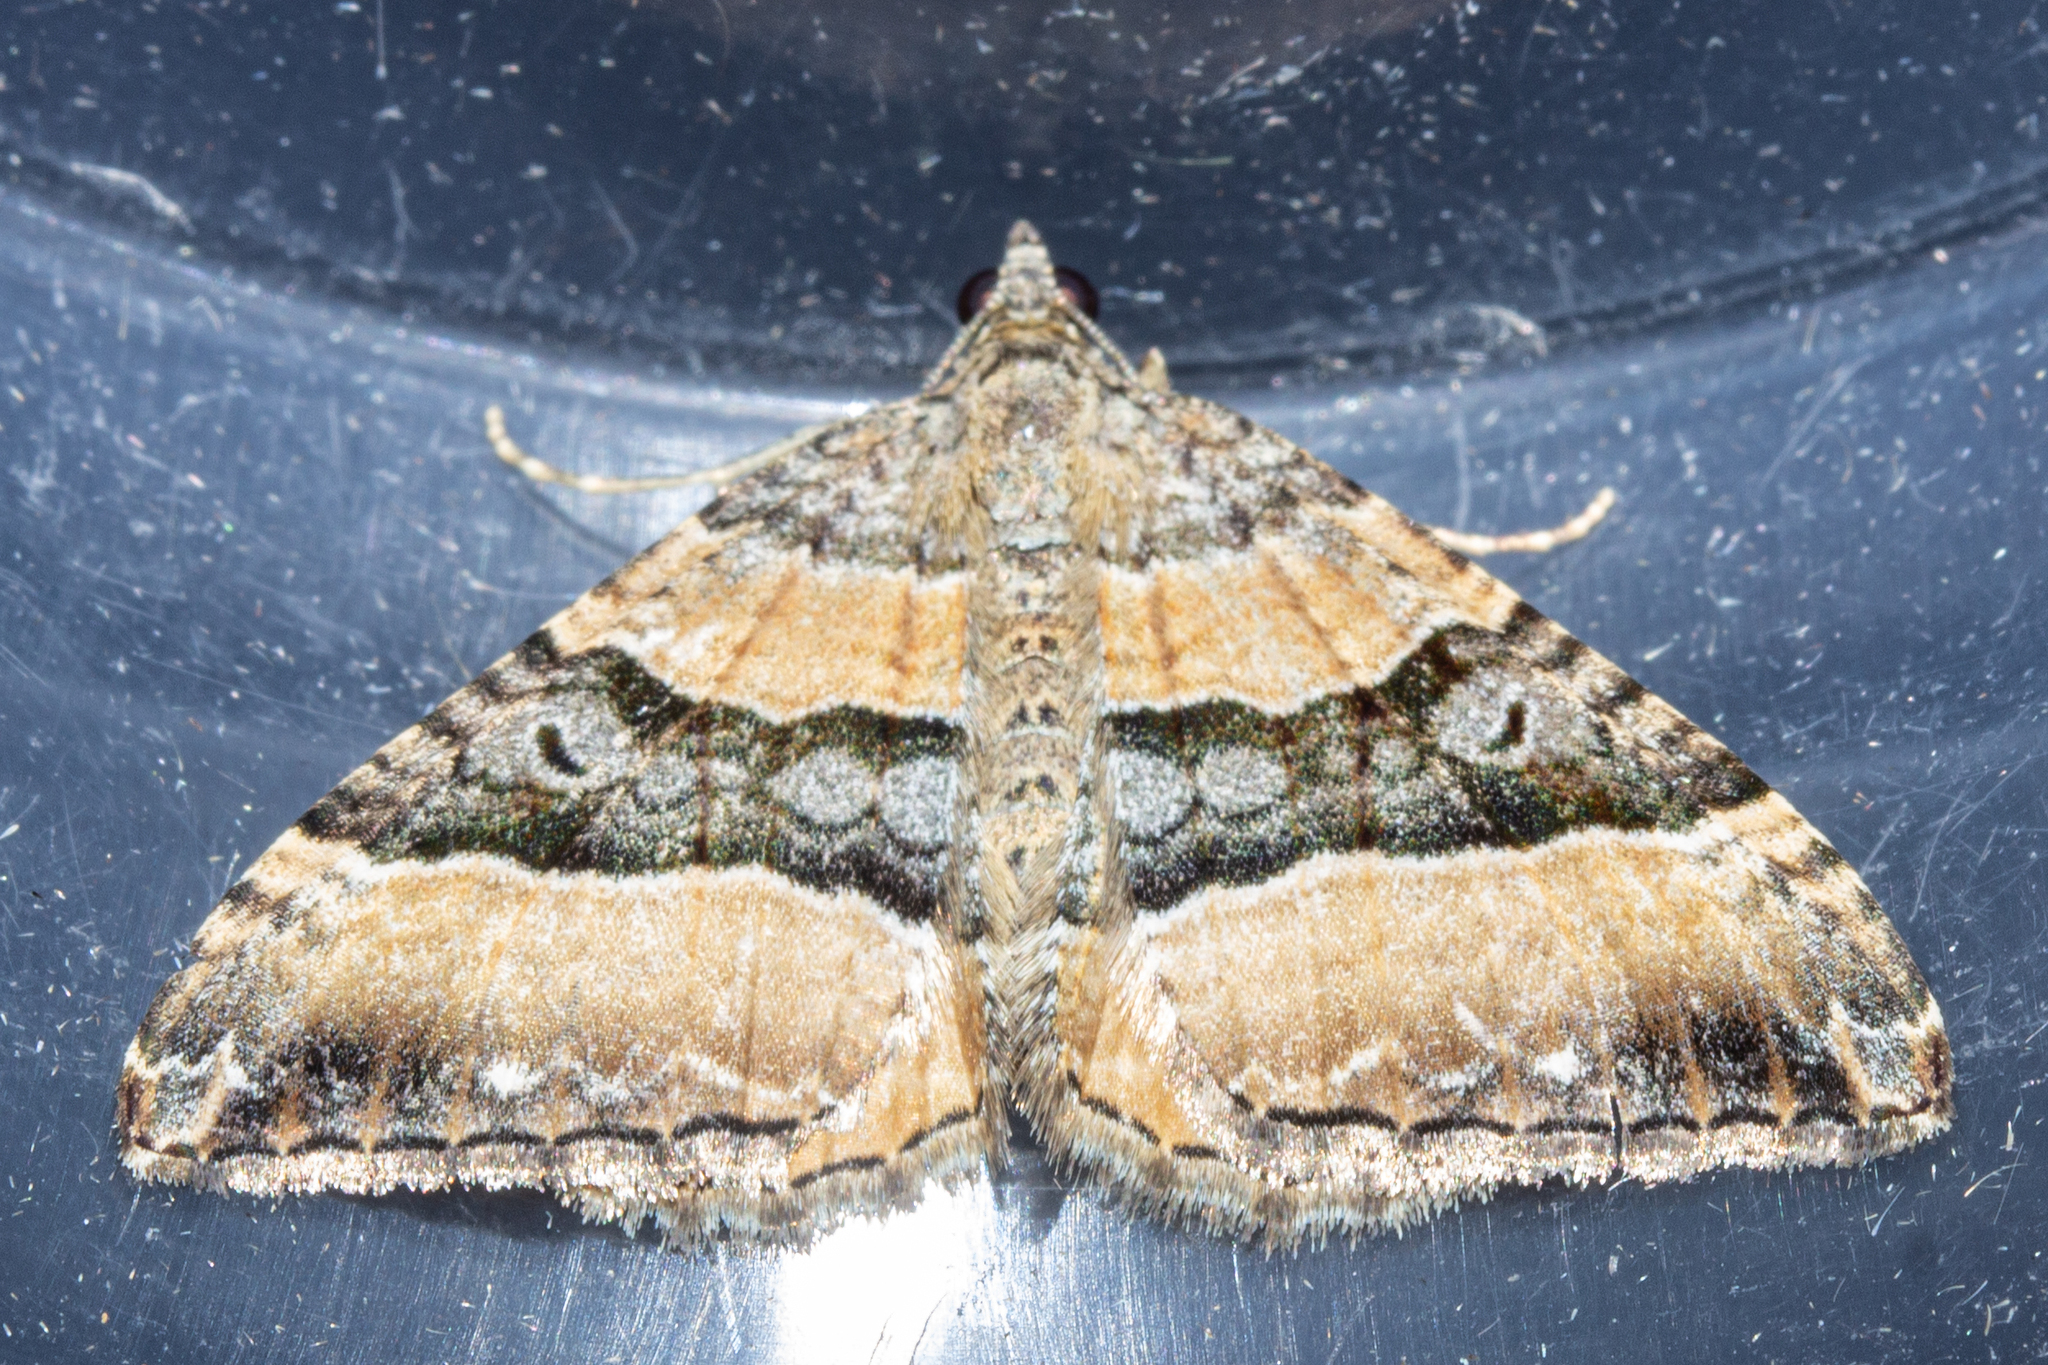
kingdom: Animalia
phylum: Arthropoda
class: Insecta
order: Lepidoptera
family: Geometridae
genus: Hydriomena
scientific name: Hydriomena deltoidata
